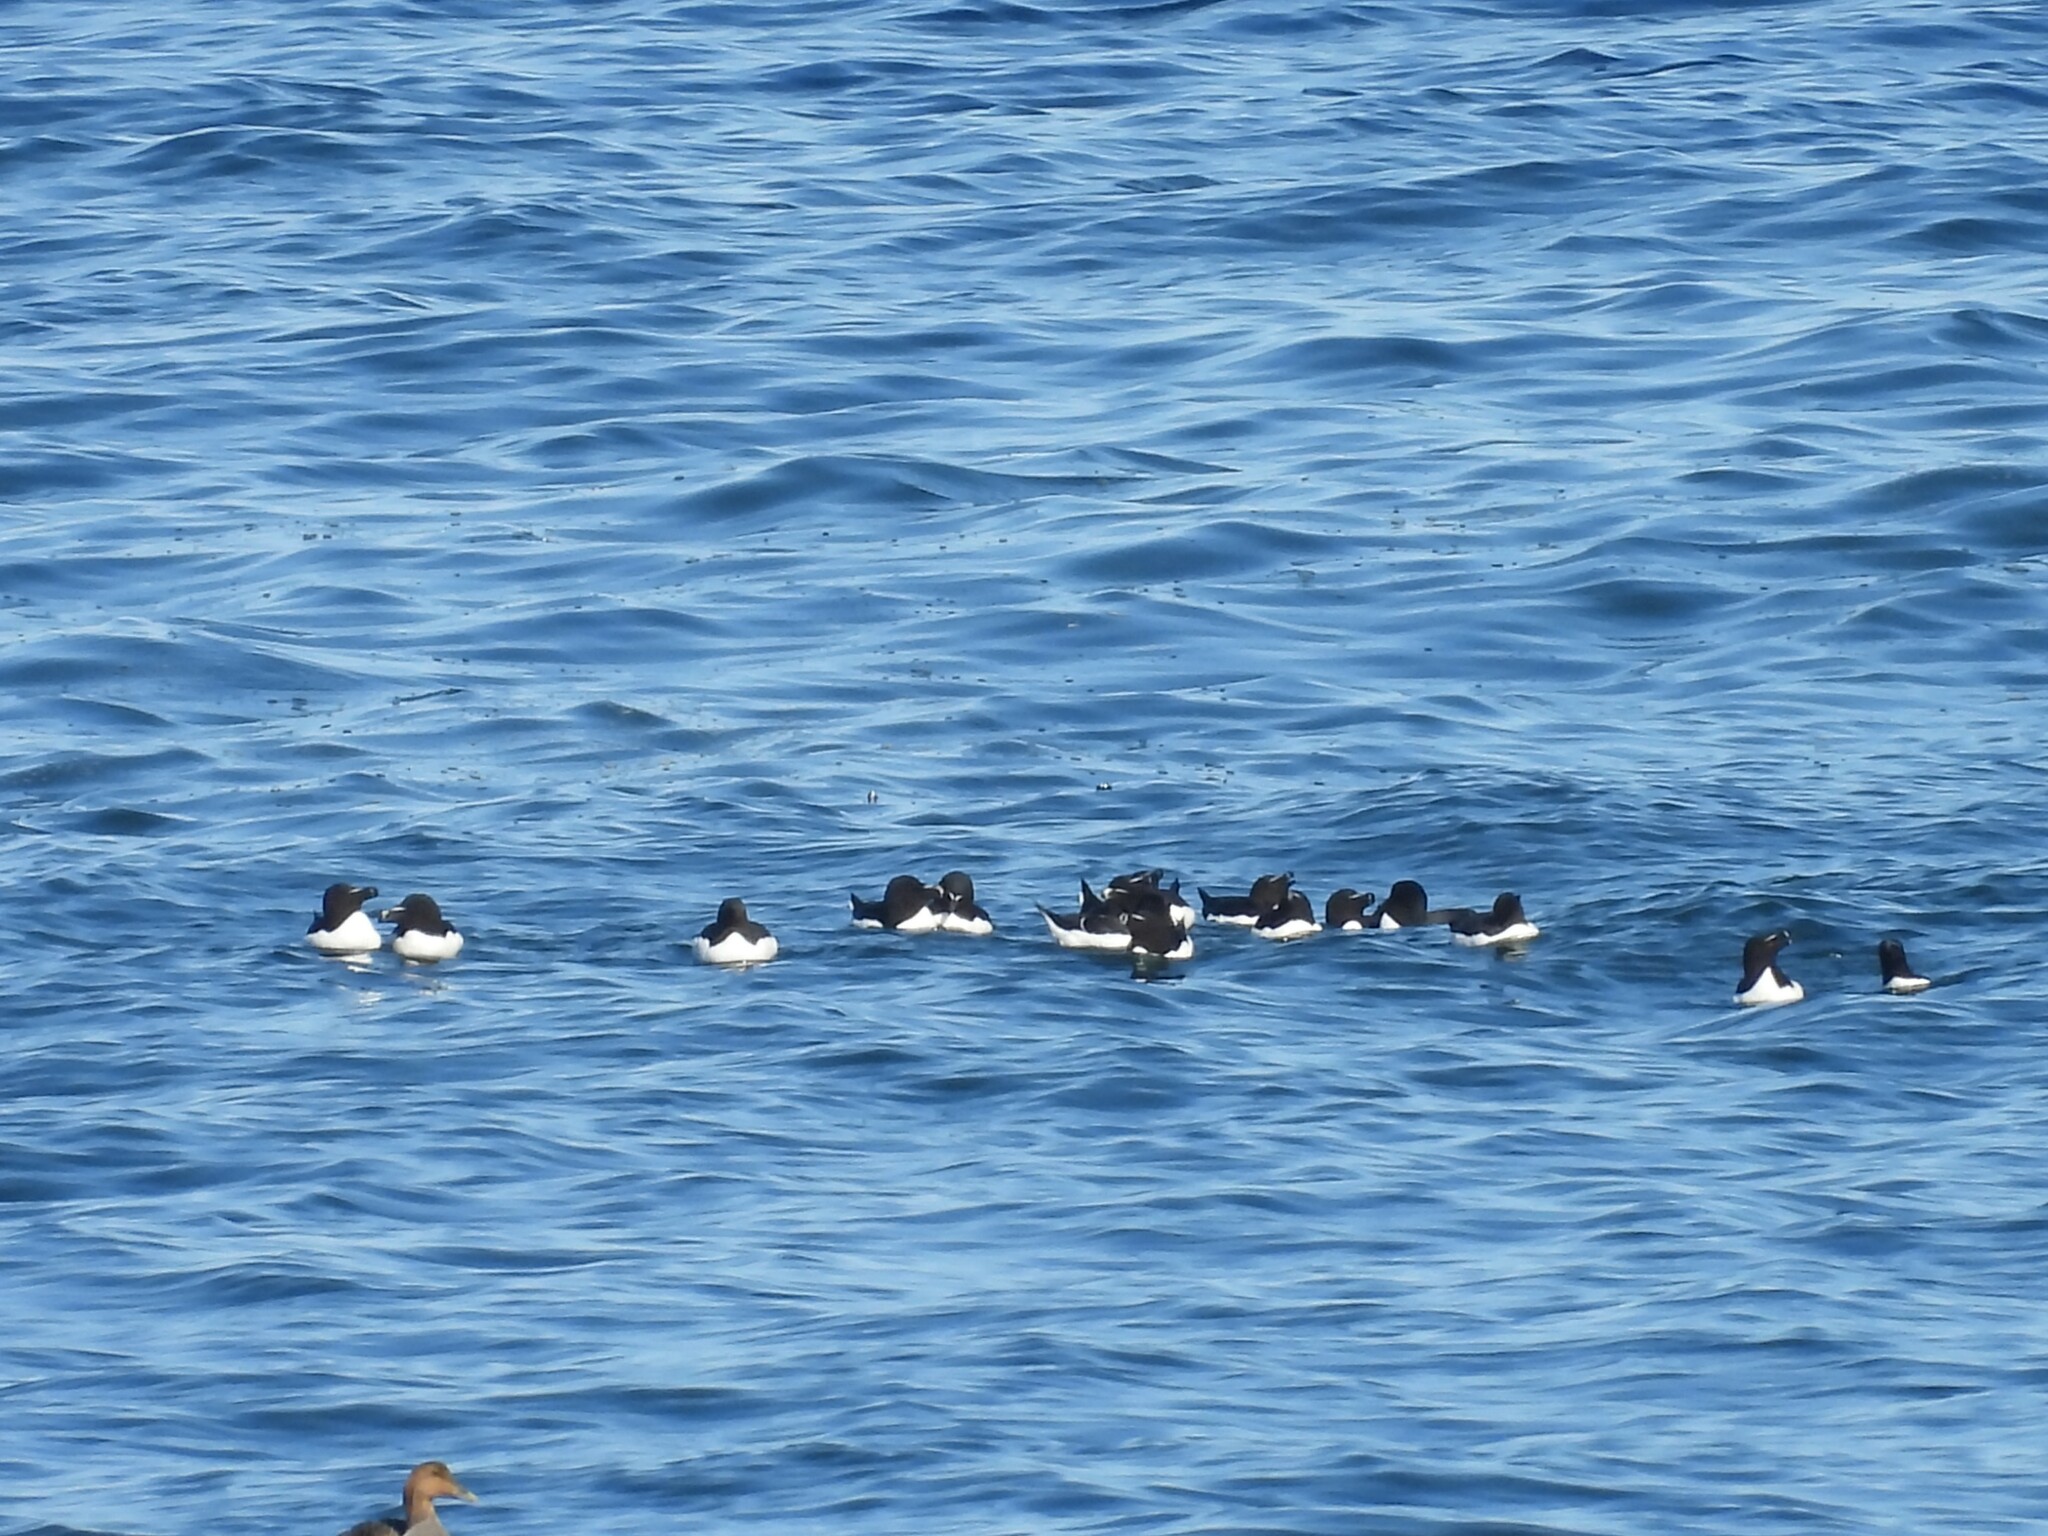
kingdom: Animalia
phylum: Chordata
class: Aves
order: Charadriiformes
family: Alcidae
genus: Alca
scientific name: Alca torda
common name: Razorbill
